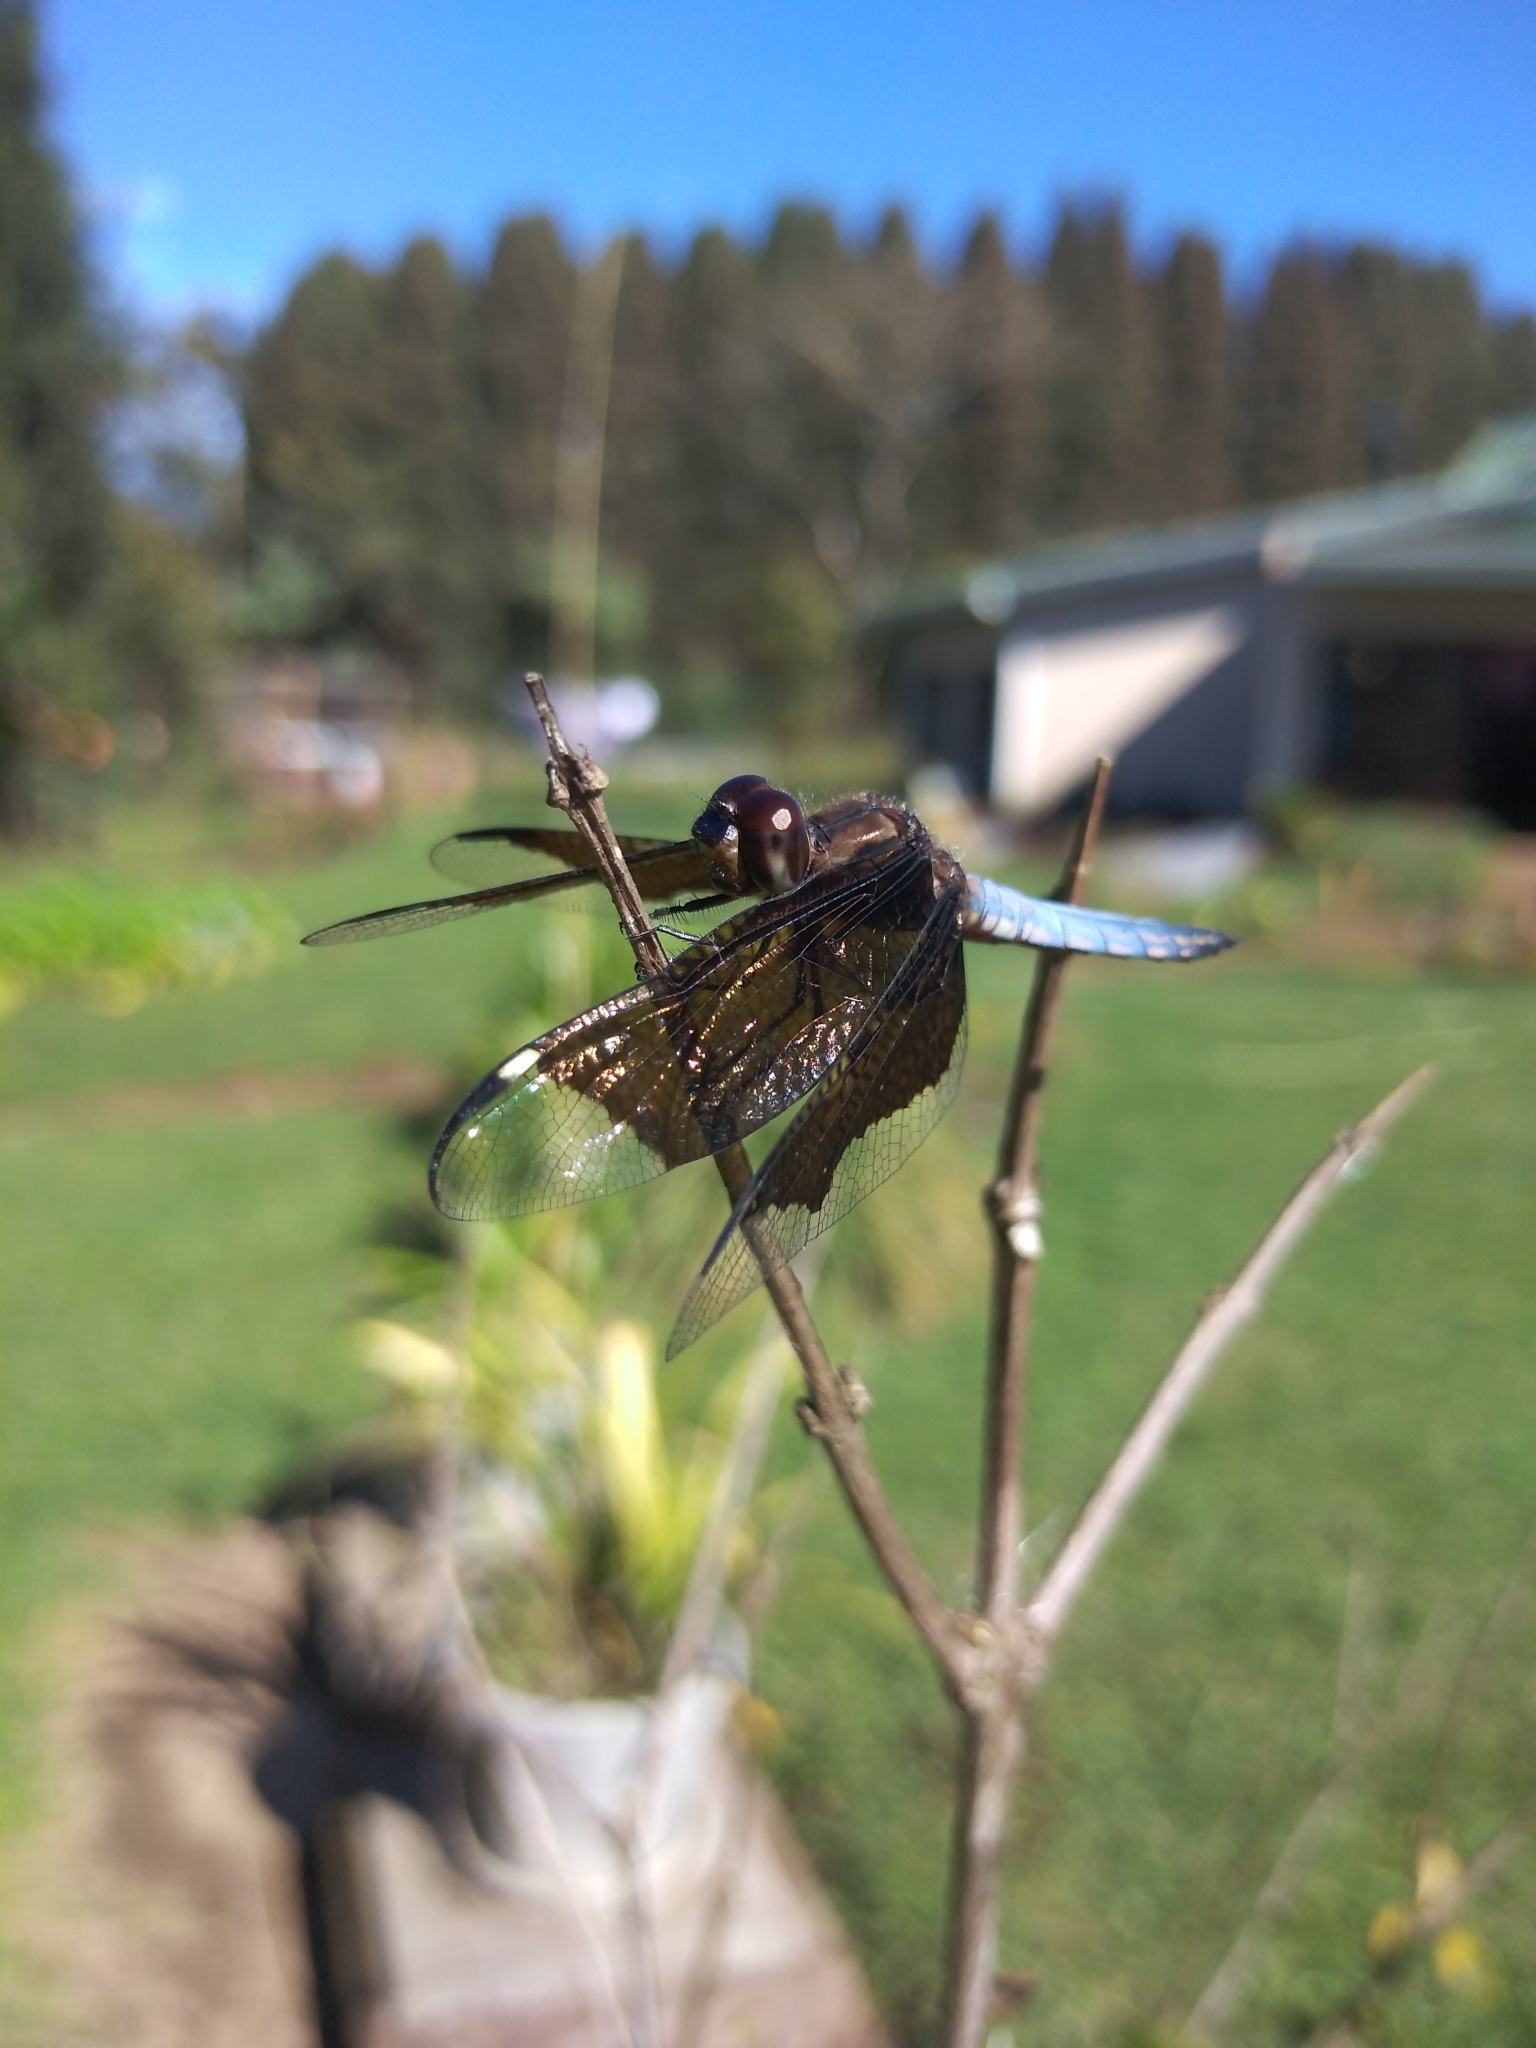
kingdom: Animalia
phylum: Arthropoda
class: Insecta
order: Odonata
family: Libellulidae
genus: Palpopleura
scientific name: Palpopleura lucia
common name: Lucia widow
